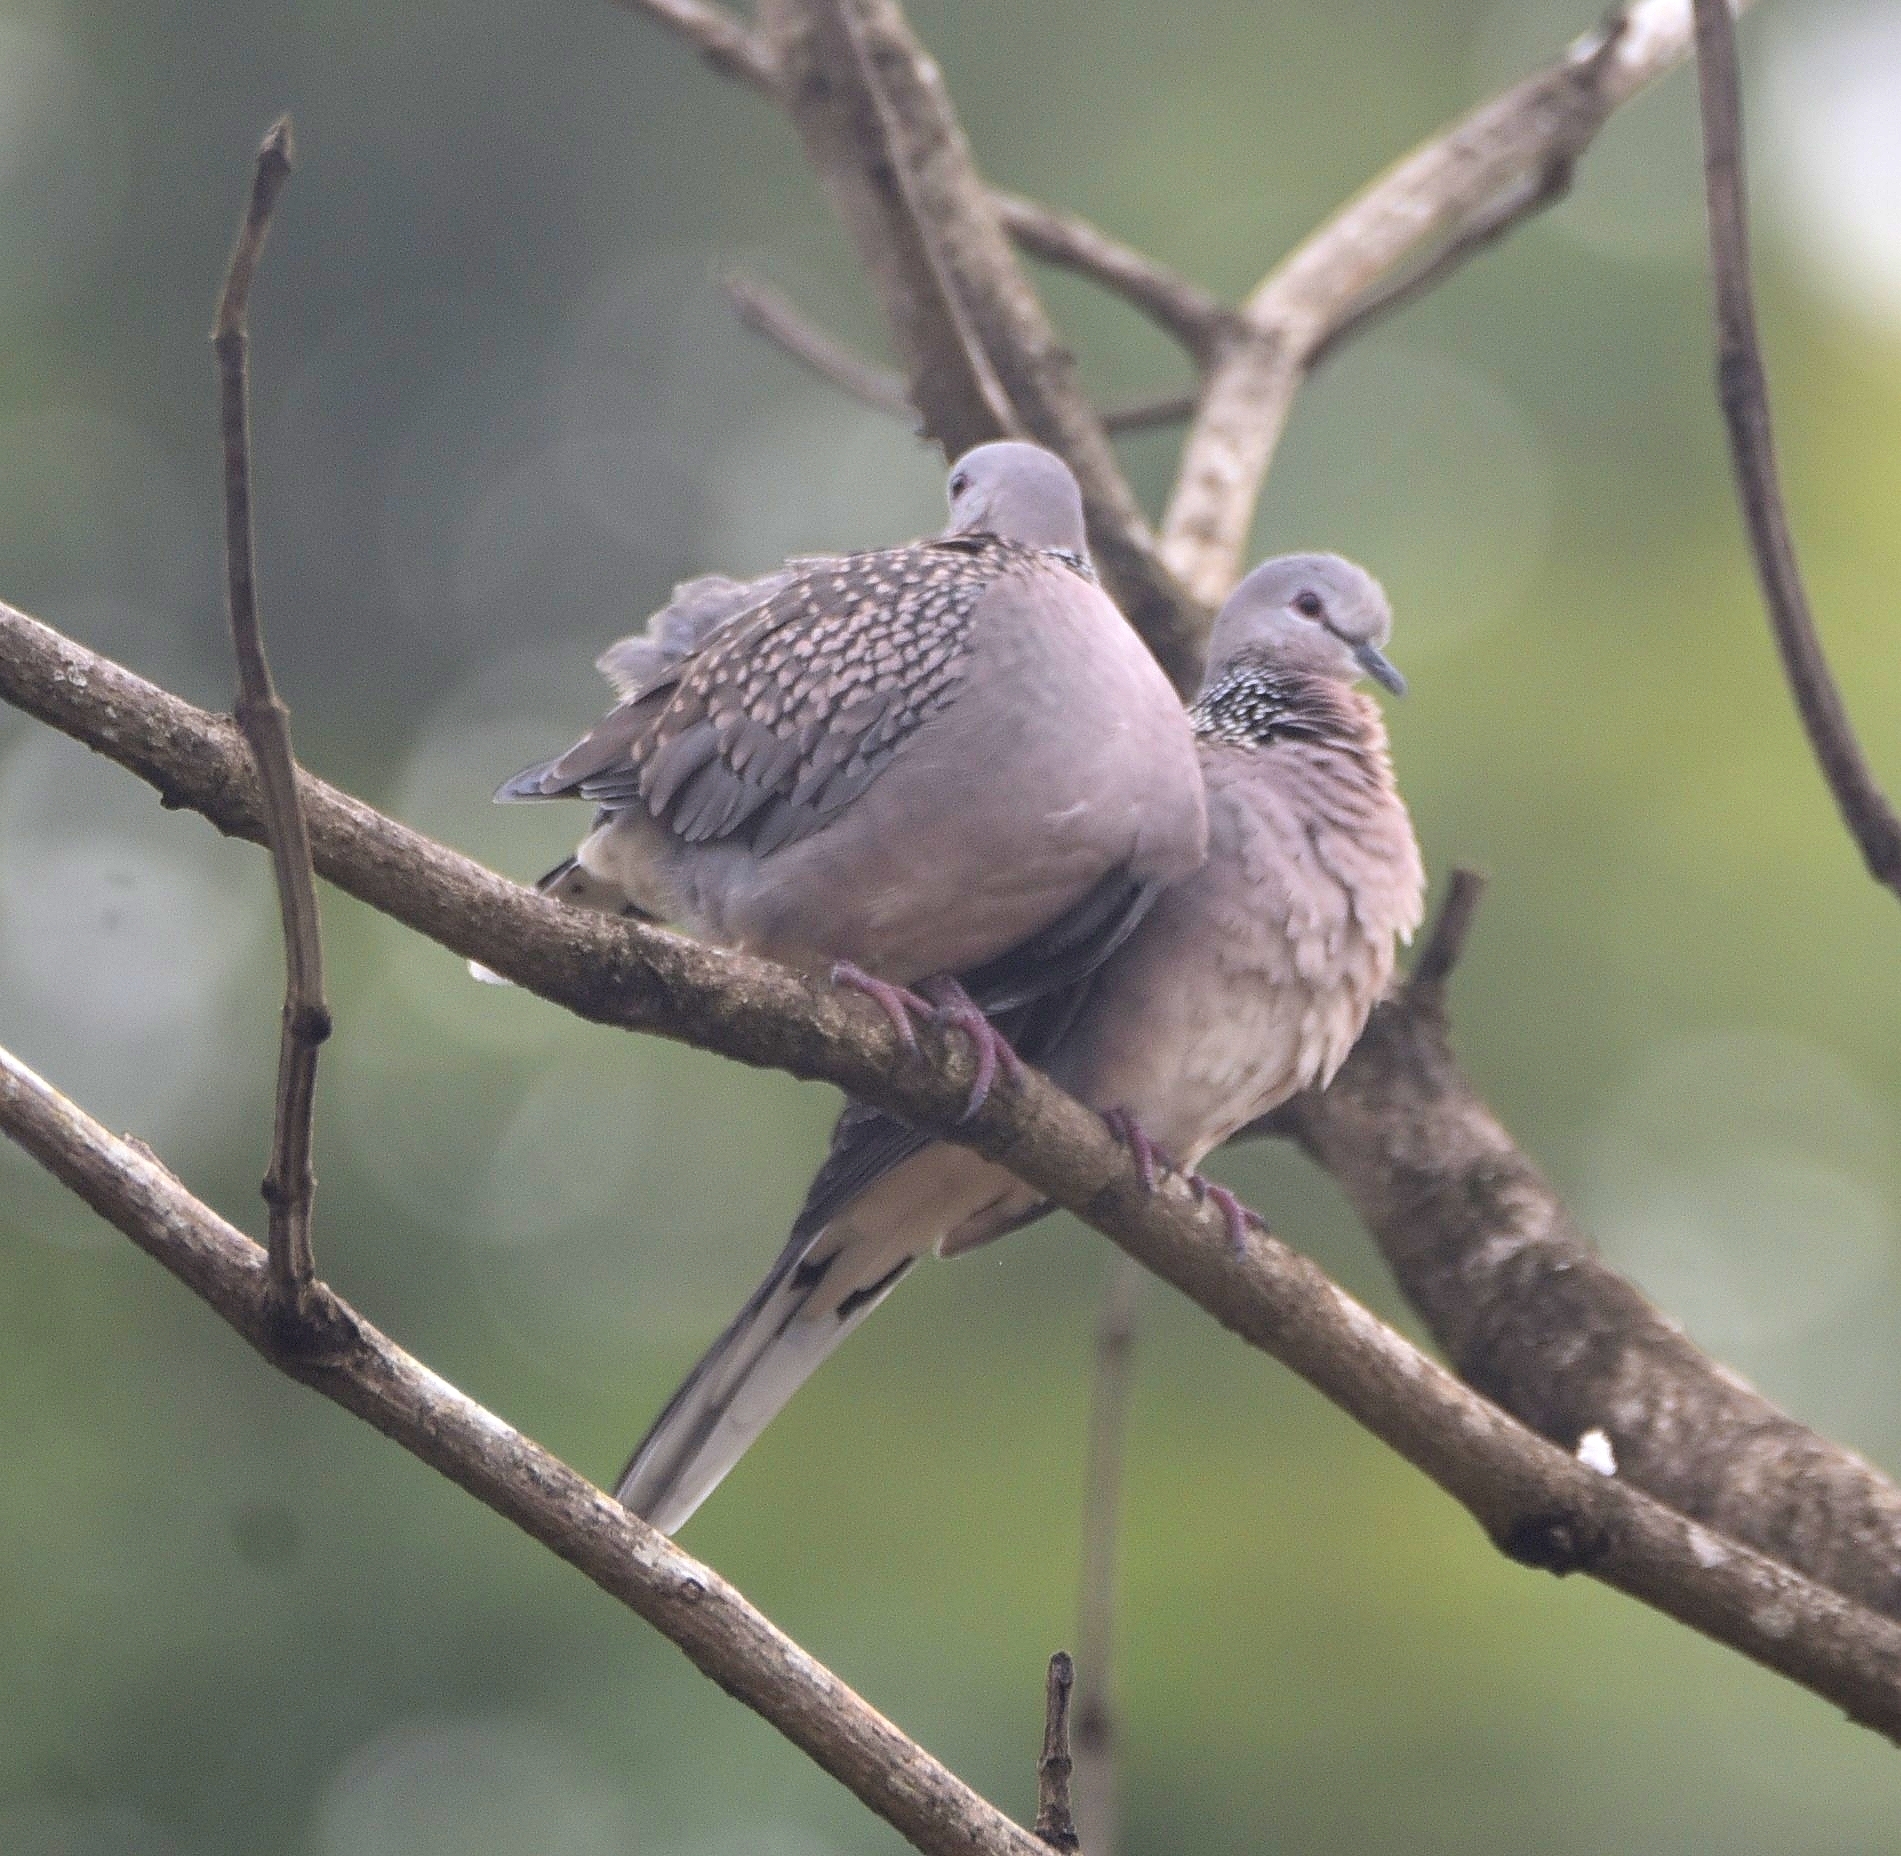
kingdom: Animalia
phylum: Chordata
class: Aves
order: Columbiformes
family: Columbidae
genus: Spilopelia
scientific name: Spilopelia chinensis
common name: Spotted dove
